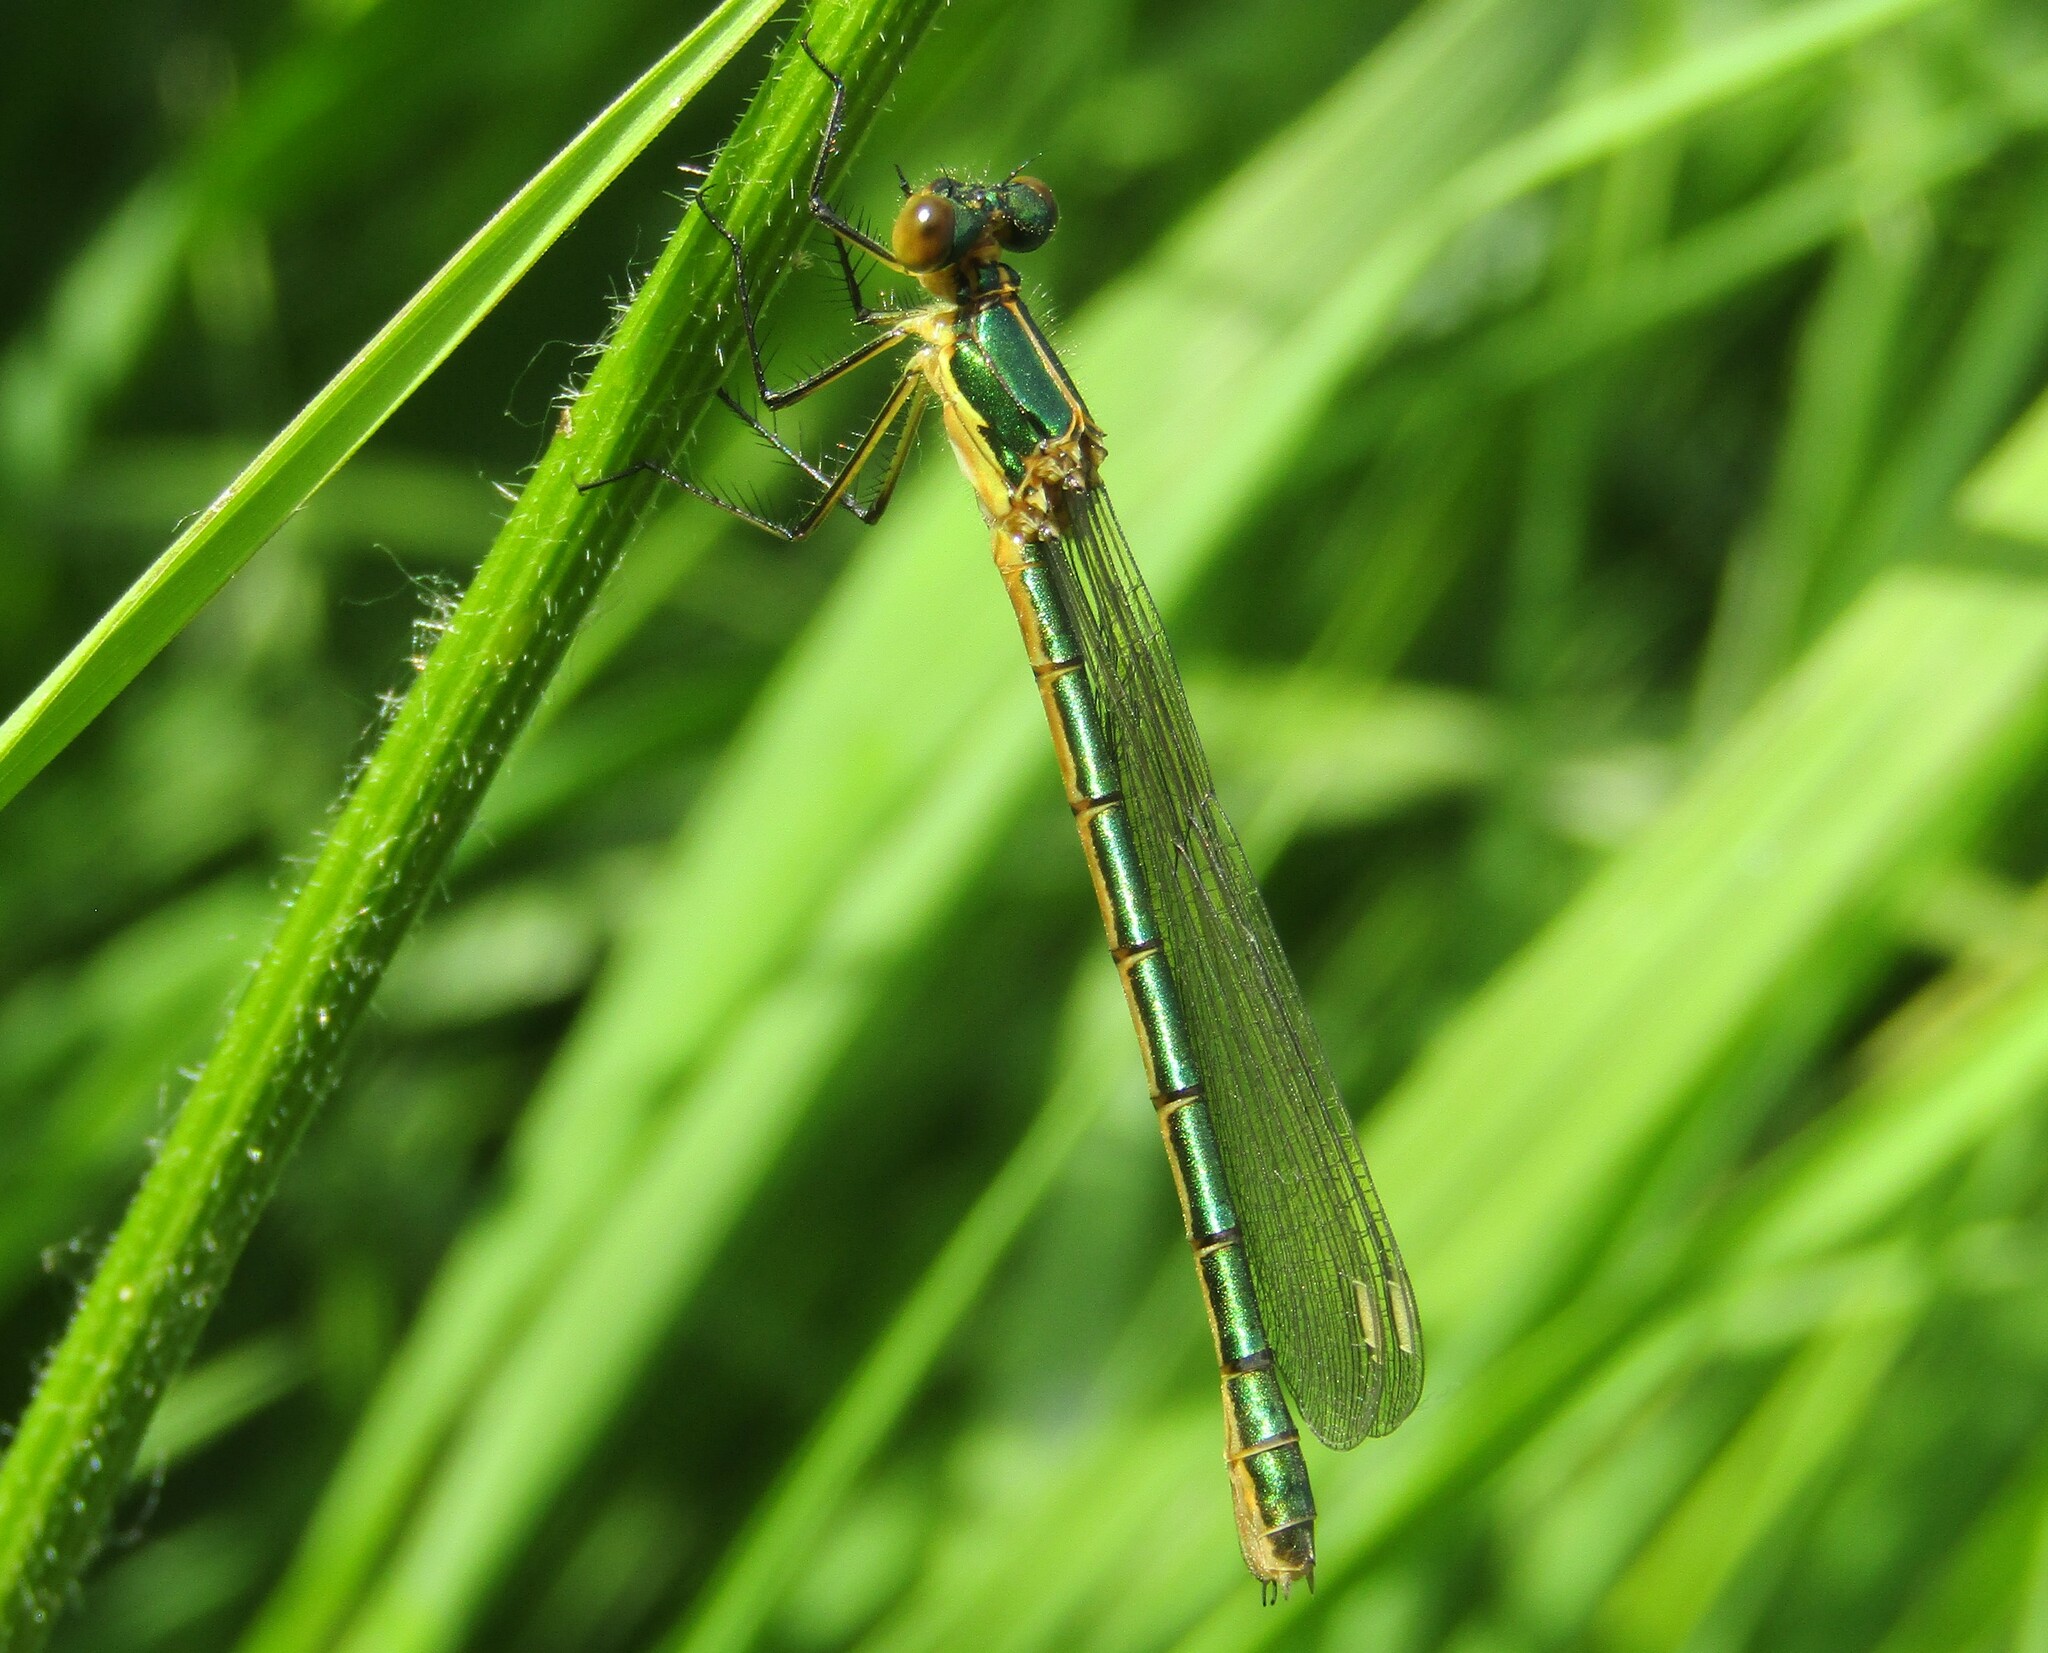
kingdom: Animalia
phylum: Arthropoda
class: Insecta
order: Odonata
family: Lestidae
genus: Lestes
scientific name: Lestes dryas
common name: Scarce emerald damselfly
